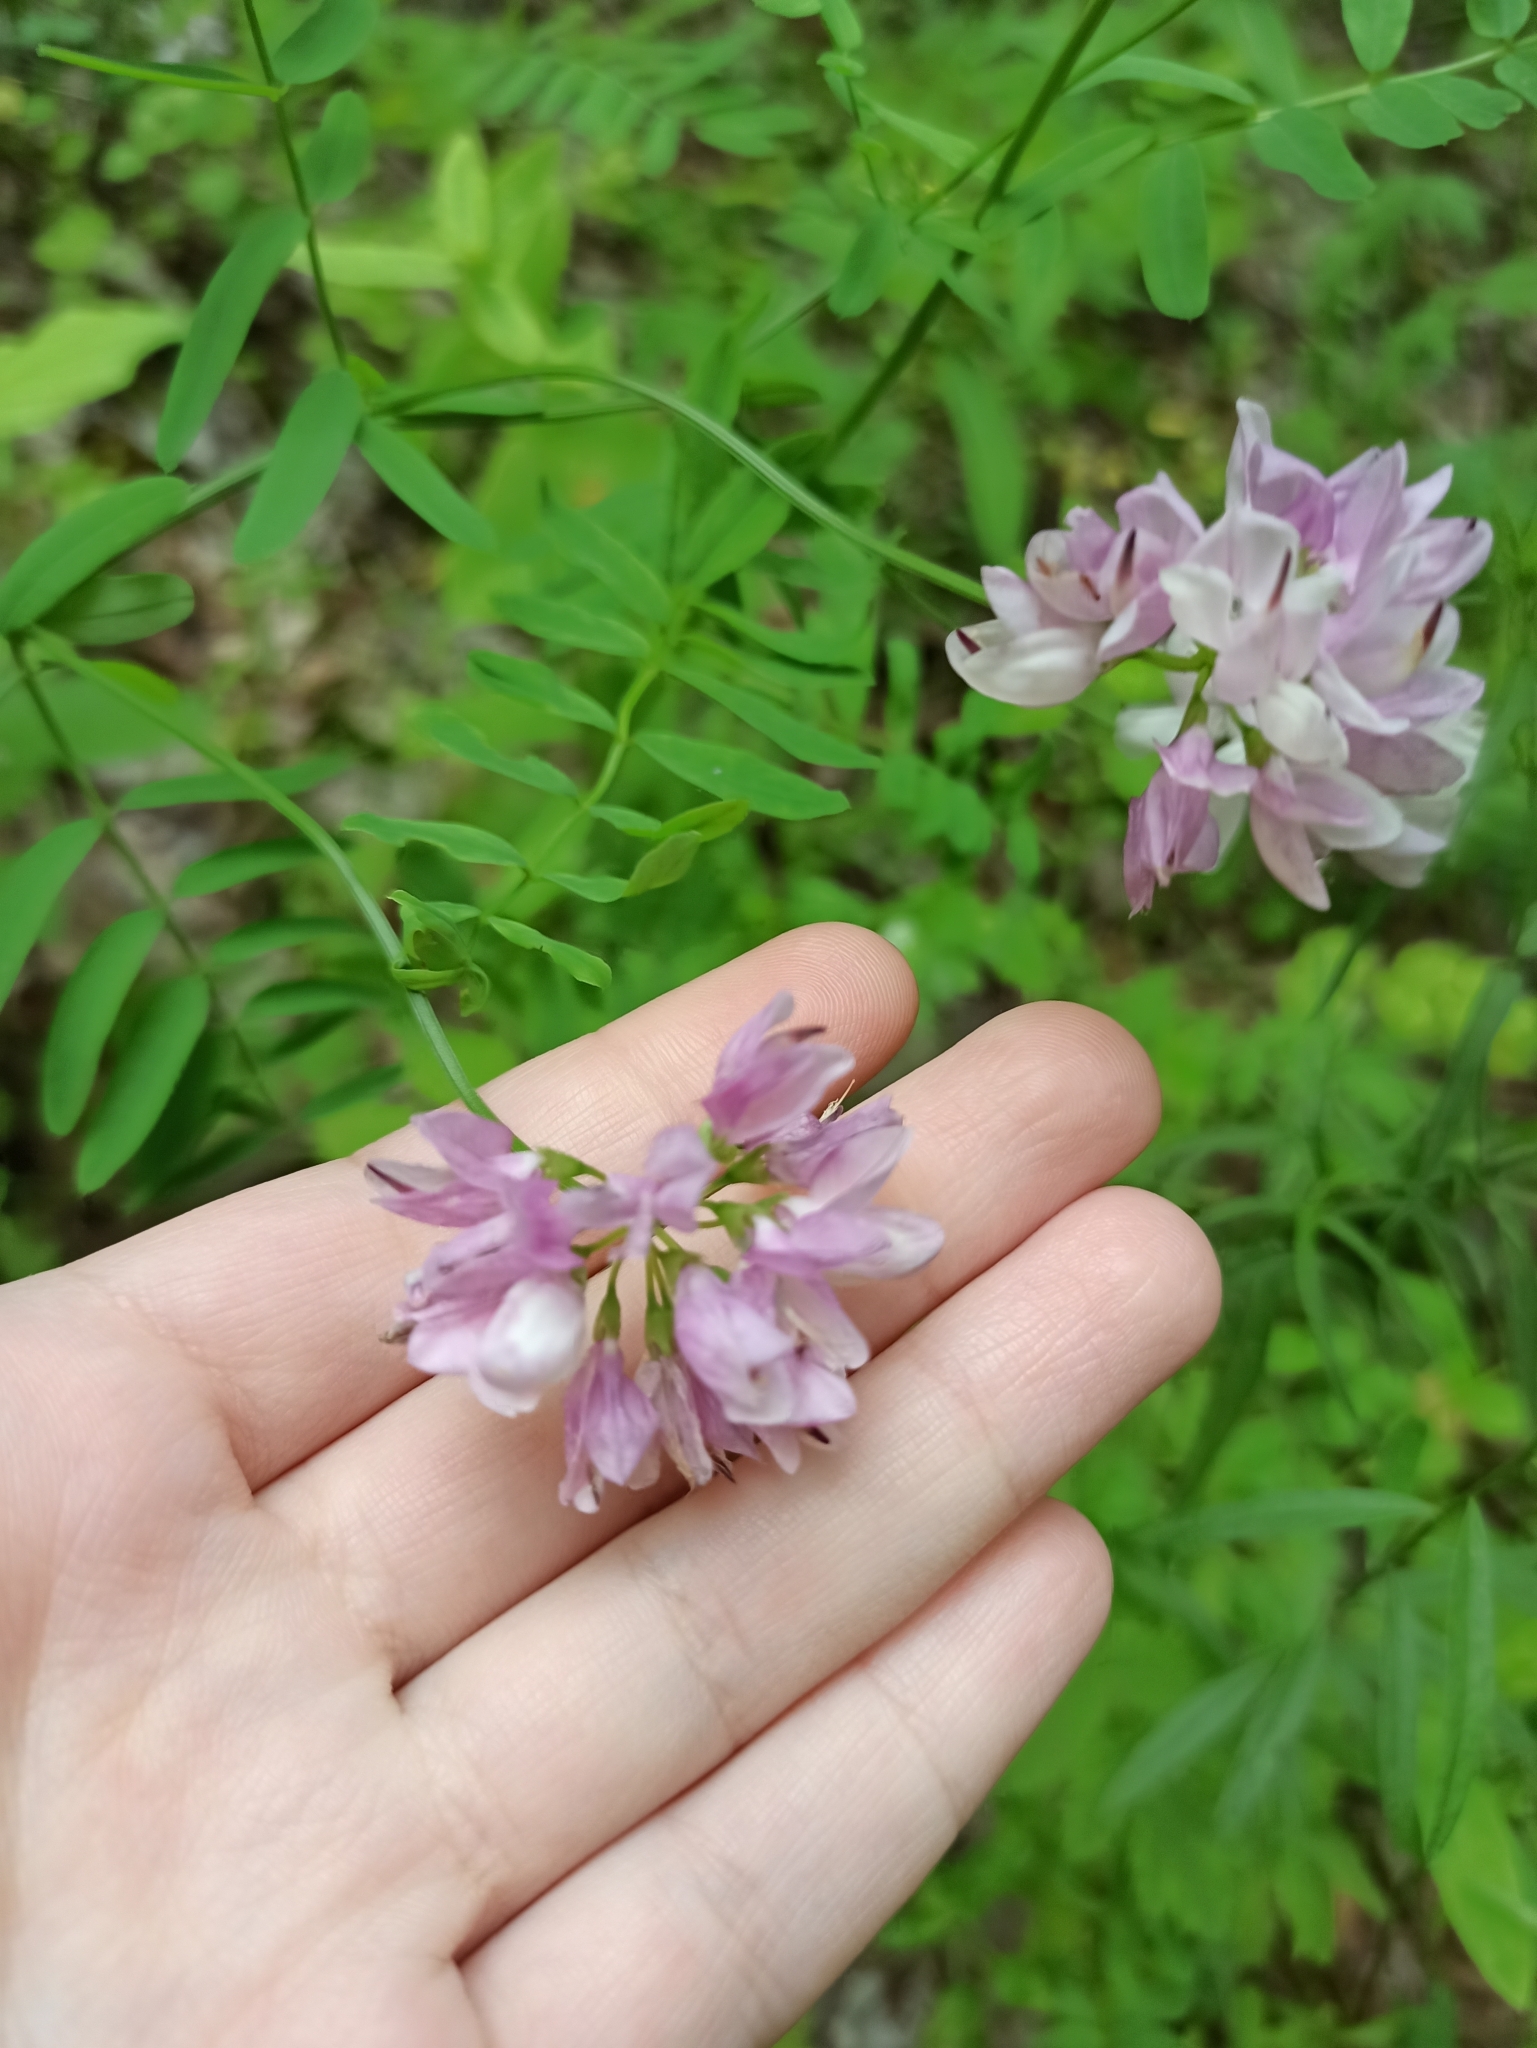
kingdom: Plantae
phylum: Tracheophyta
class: Magnoliopsida
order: Fabales
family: Fabaceae
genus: Coronilla
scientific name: Coronilla varia
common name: Crownvetch
